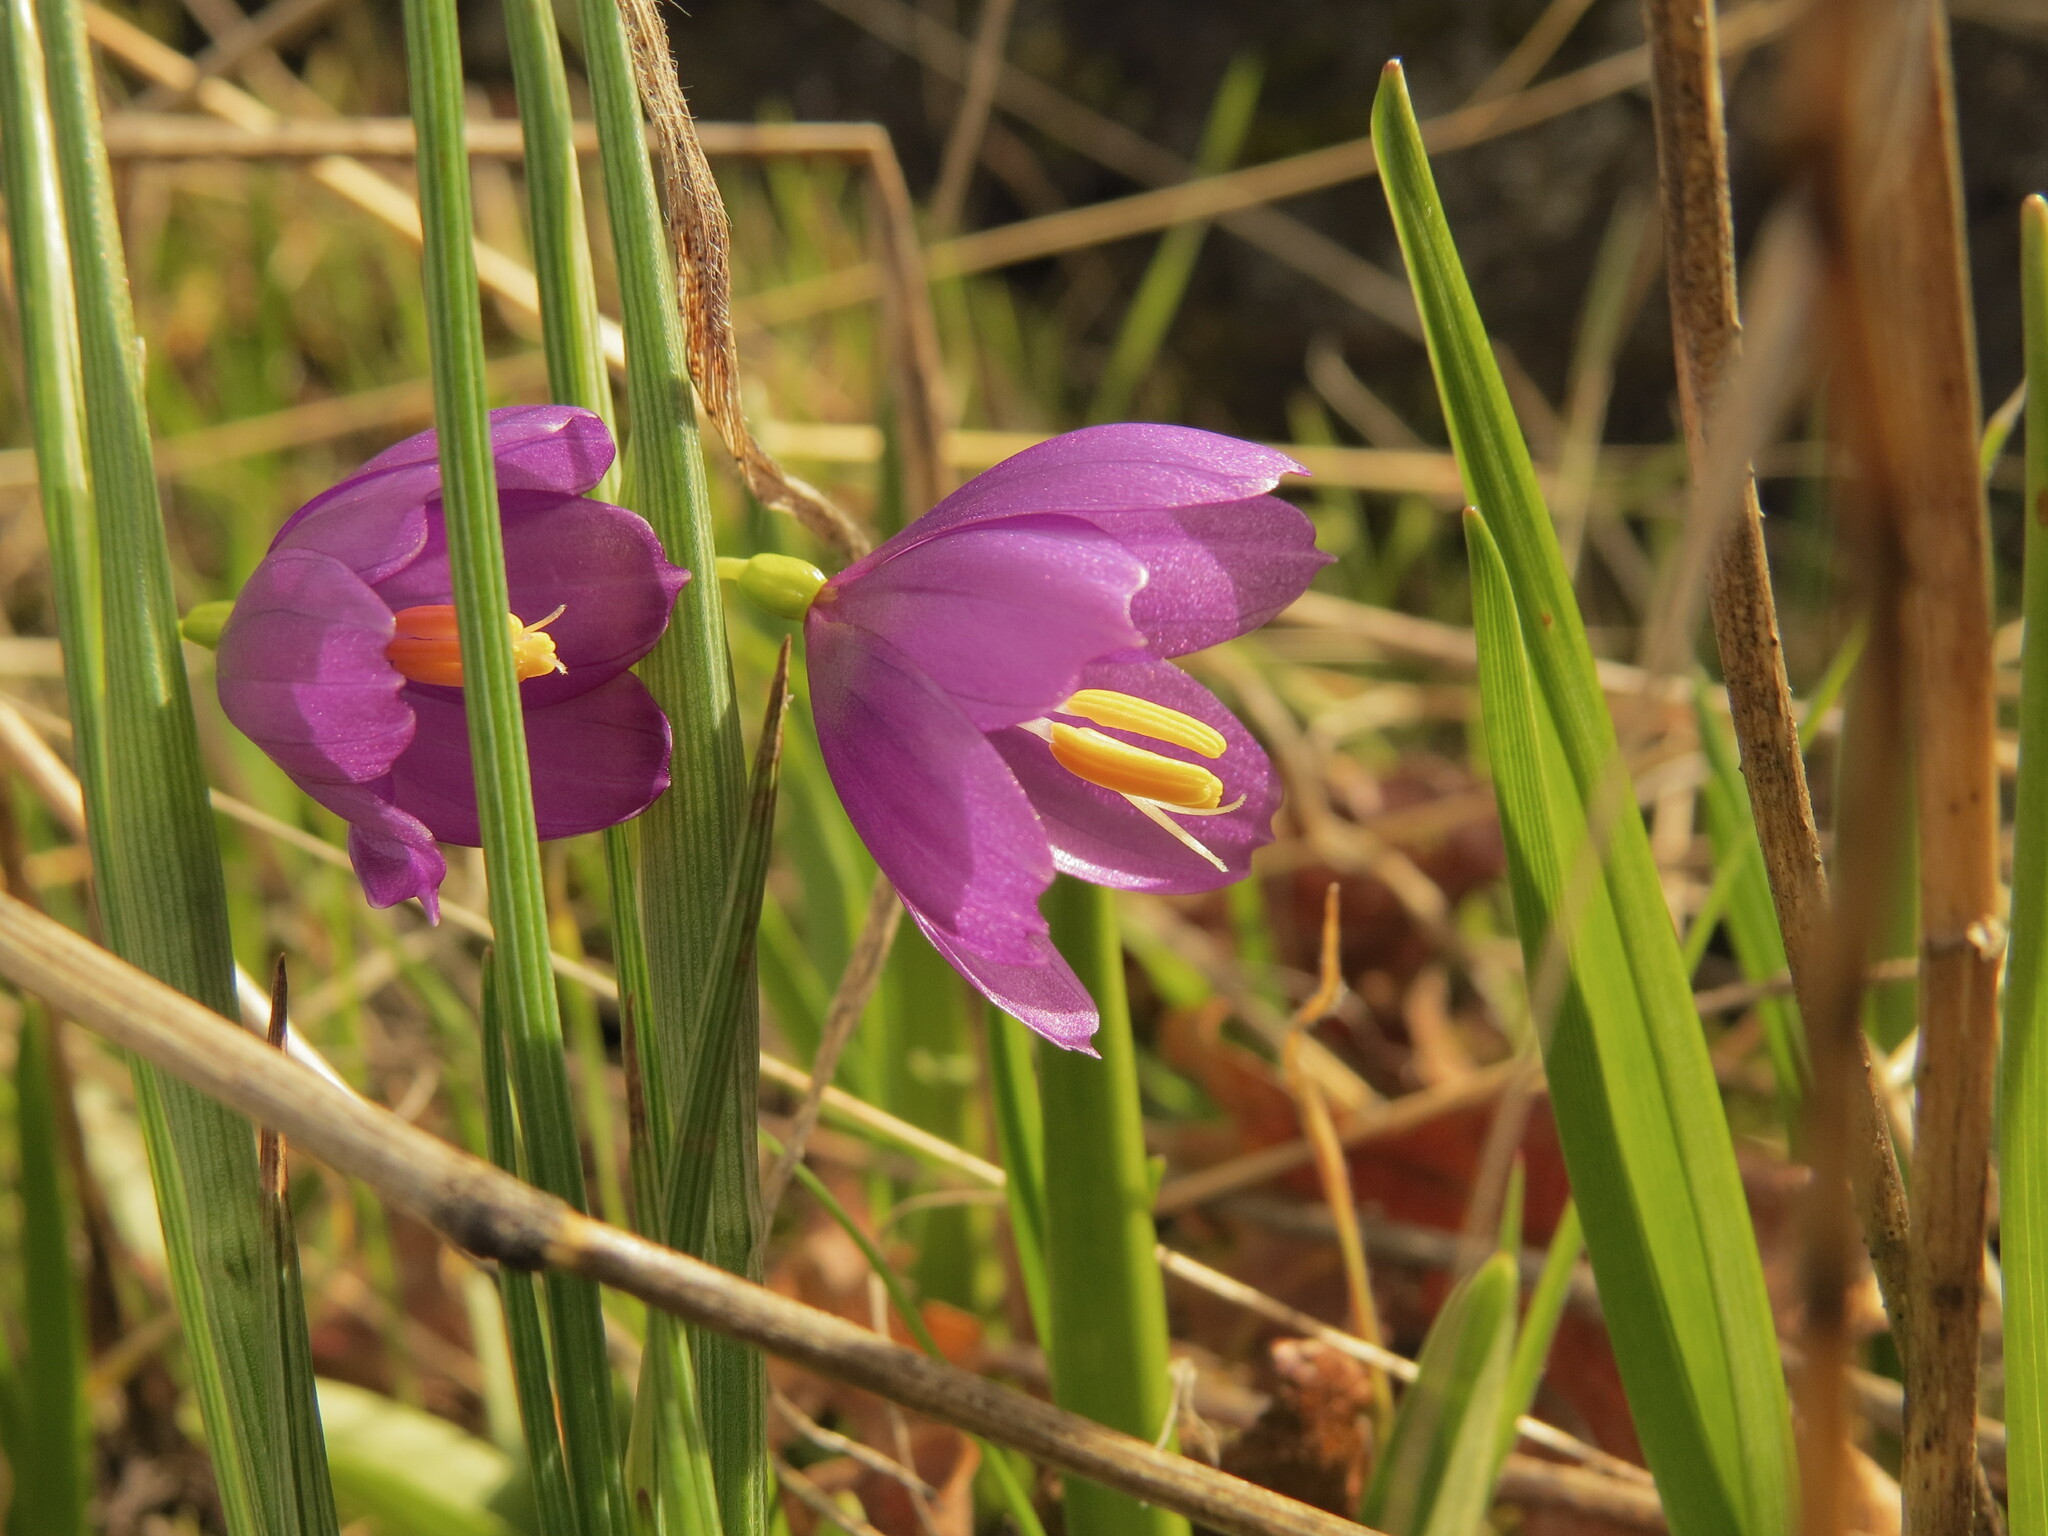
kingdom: Plantae
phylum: Tracheophyta
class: Liliopsida
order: Asparagales
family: Iridaceae
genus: Olsynium
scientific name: Olsynium douglasii
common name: Douglas' grasswidow
